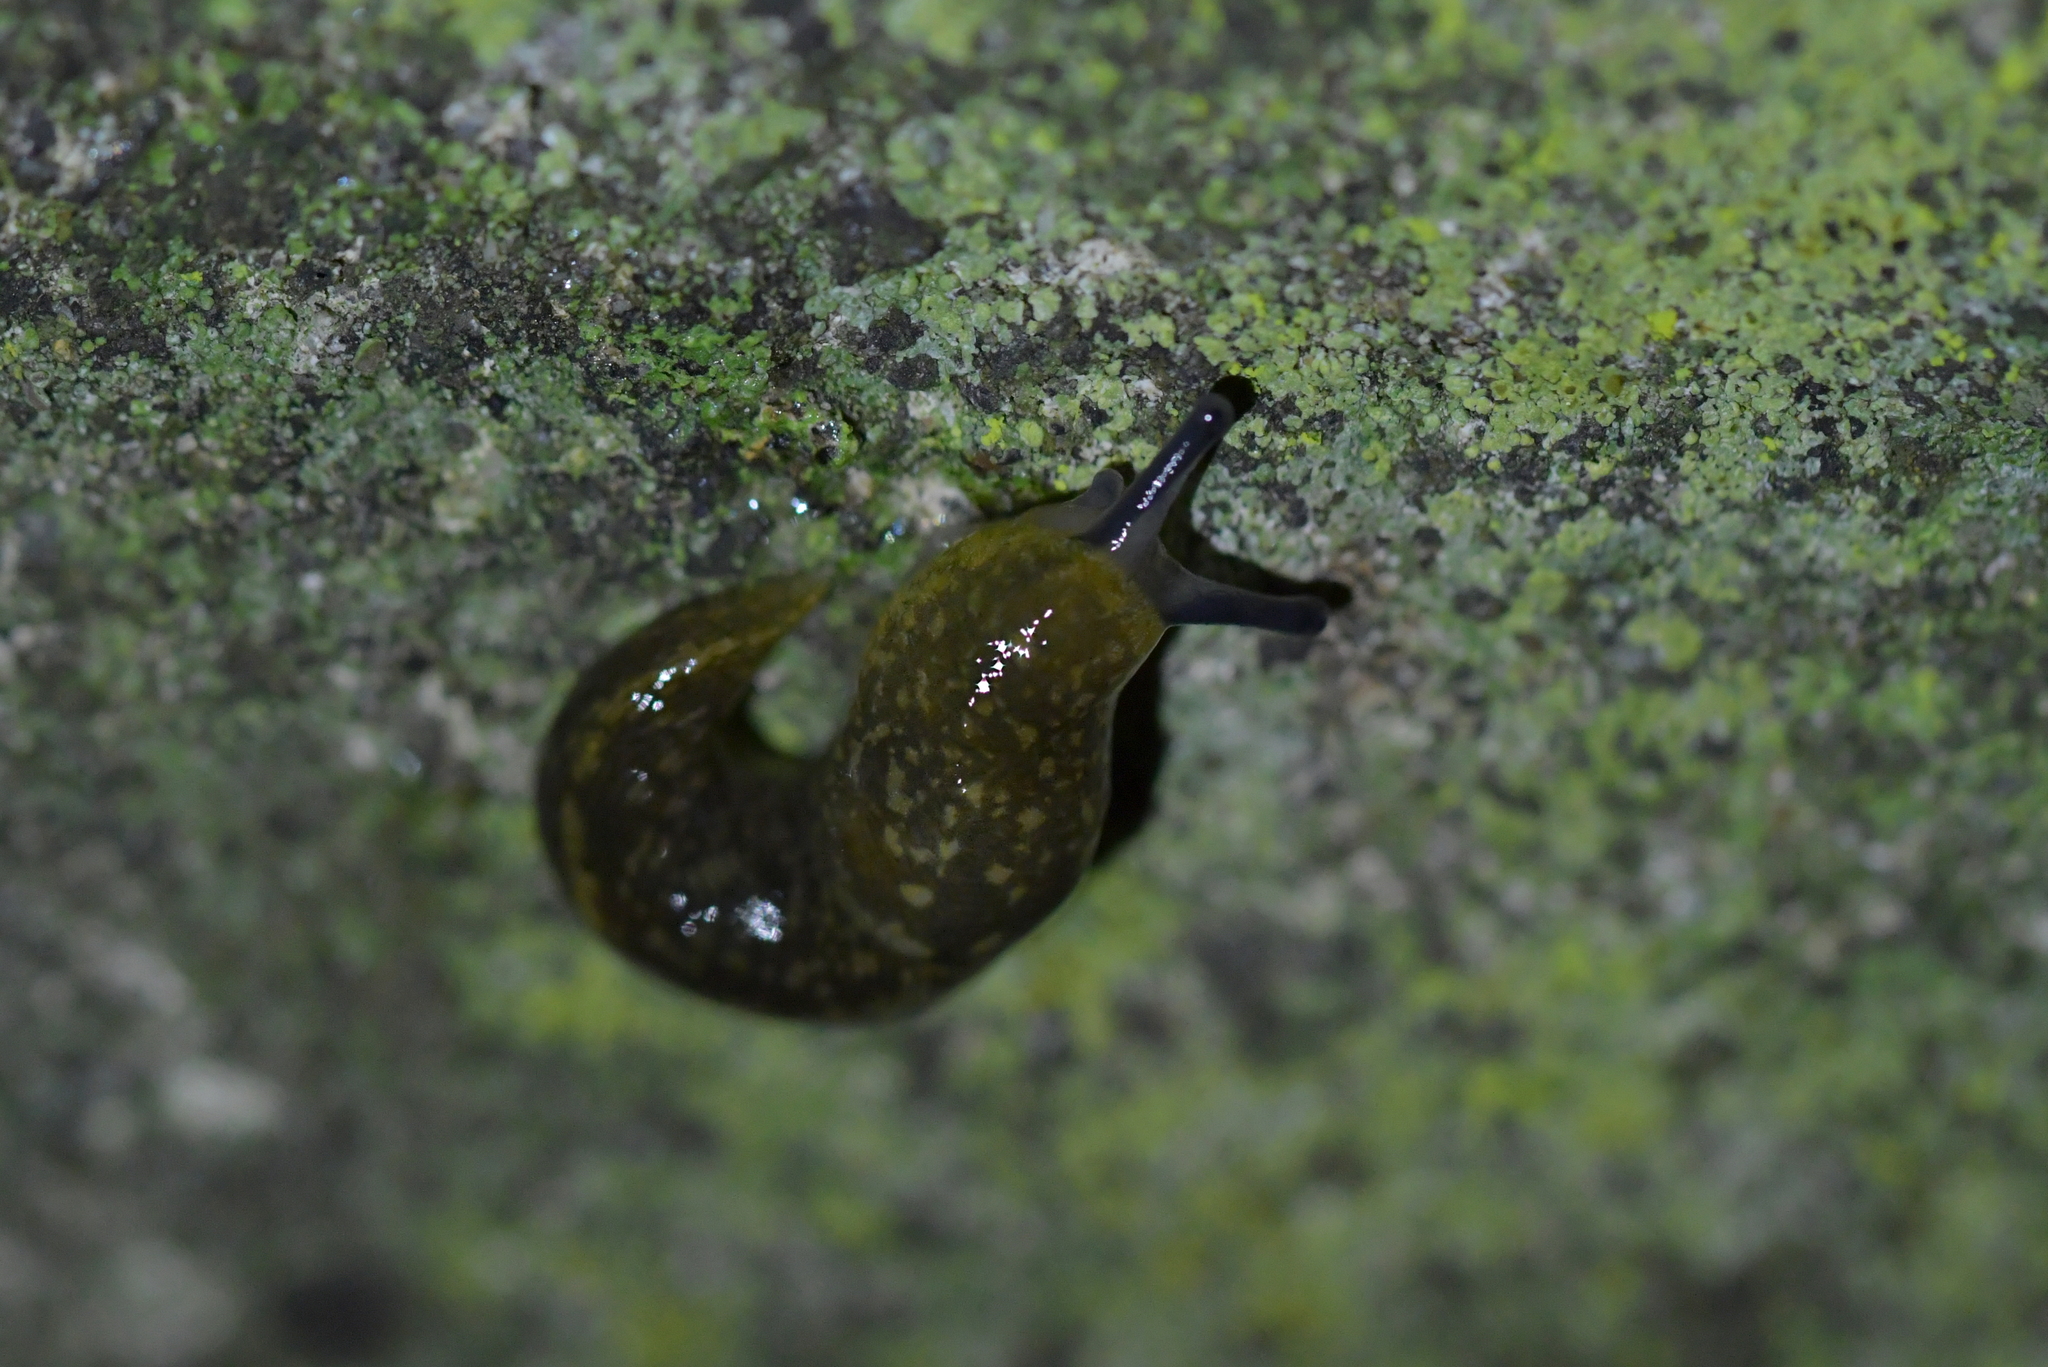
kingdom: Animalia
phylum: Mollusca
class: Gastropoda
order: Stylommatophora
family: Limacidae
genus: Limacus
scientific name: Limacus flavus
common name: Yellow gardenslug
